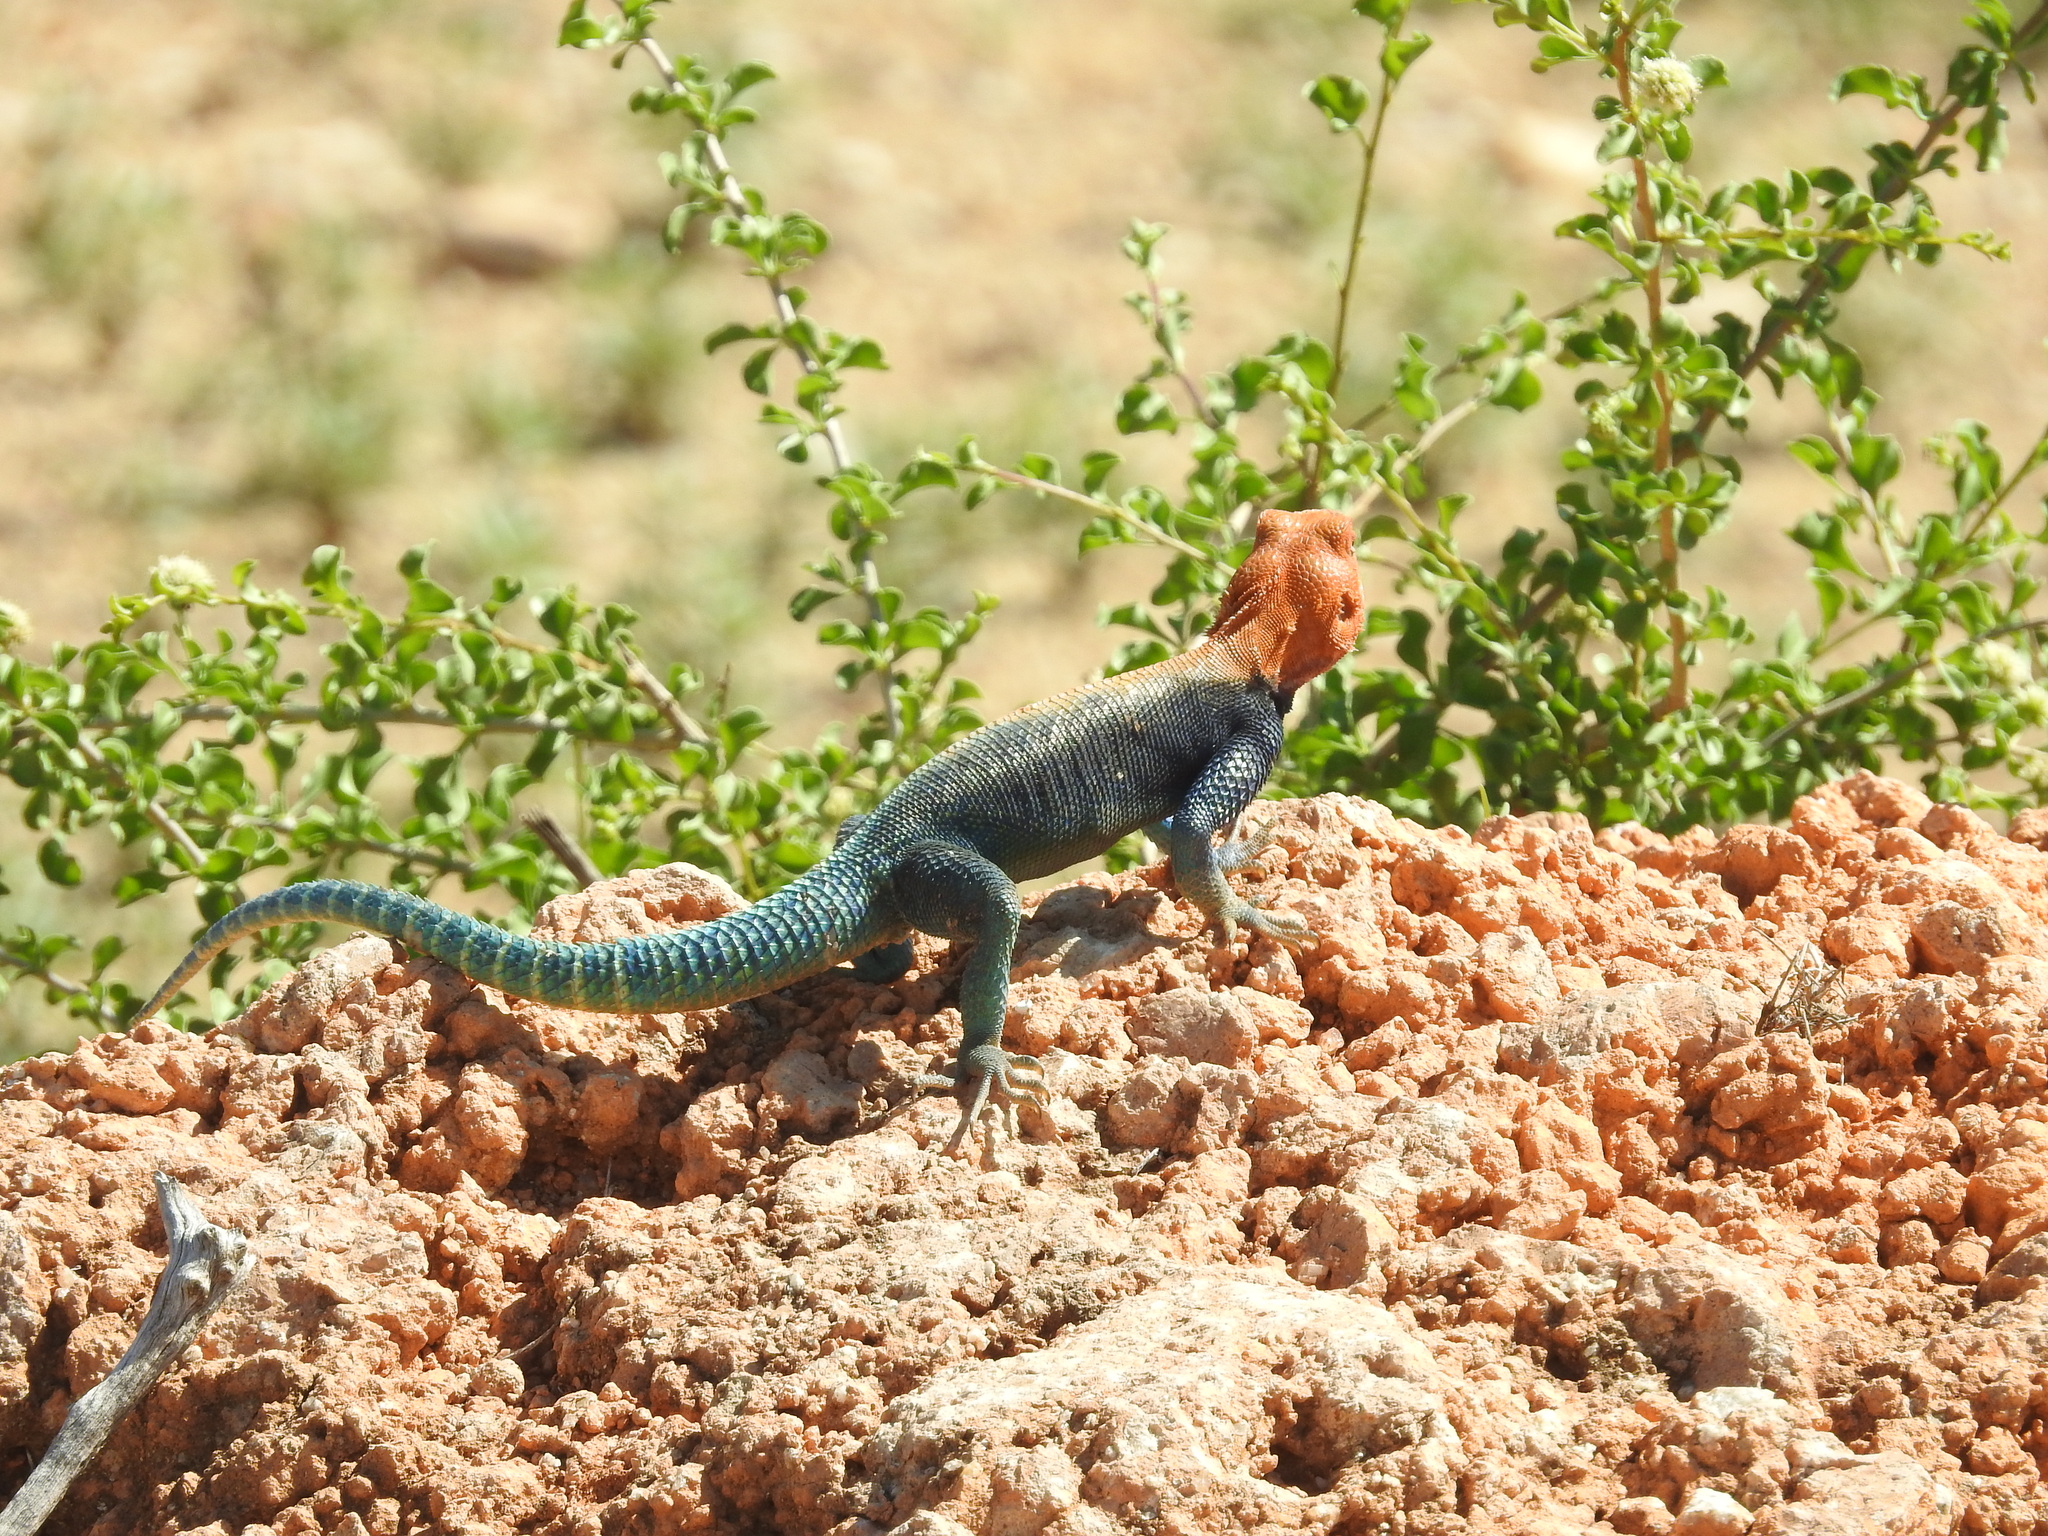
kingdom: Animalia
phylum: Chordata
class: Squamata
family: Agamidae
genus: Agama
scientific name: Agama lionotus
